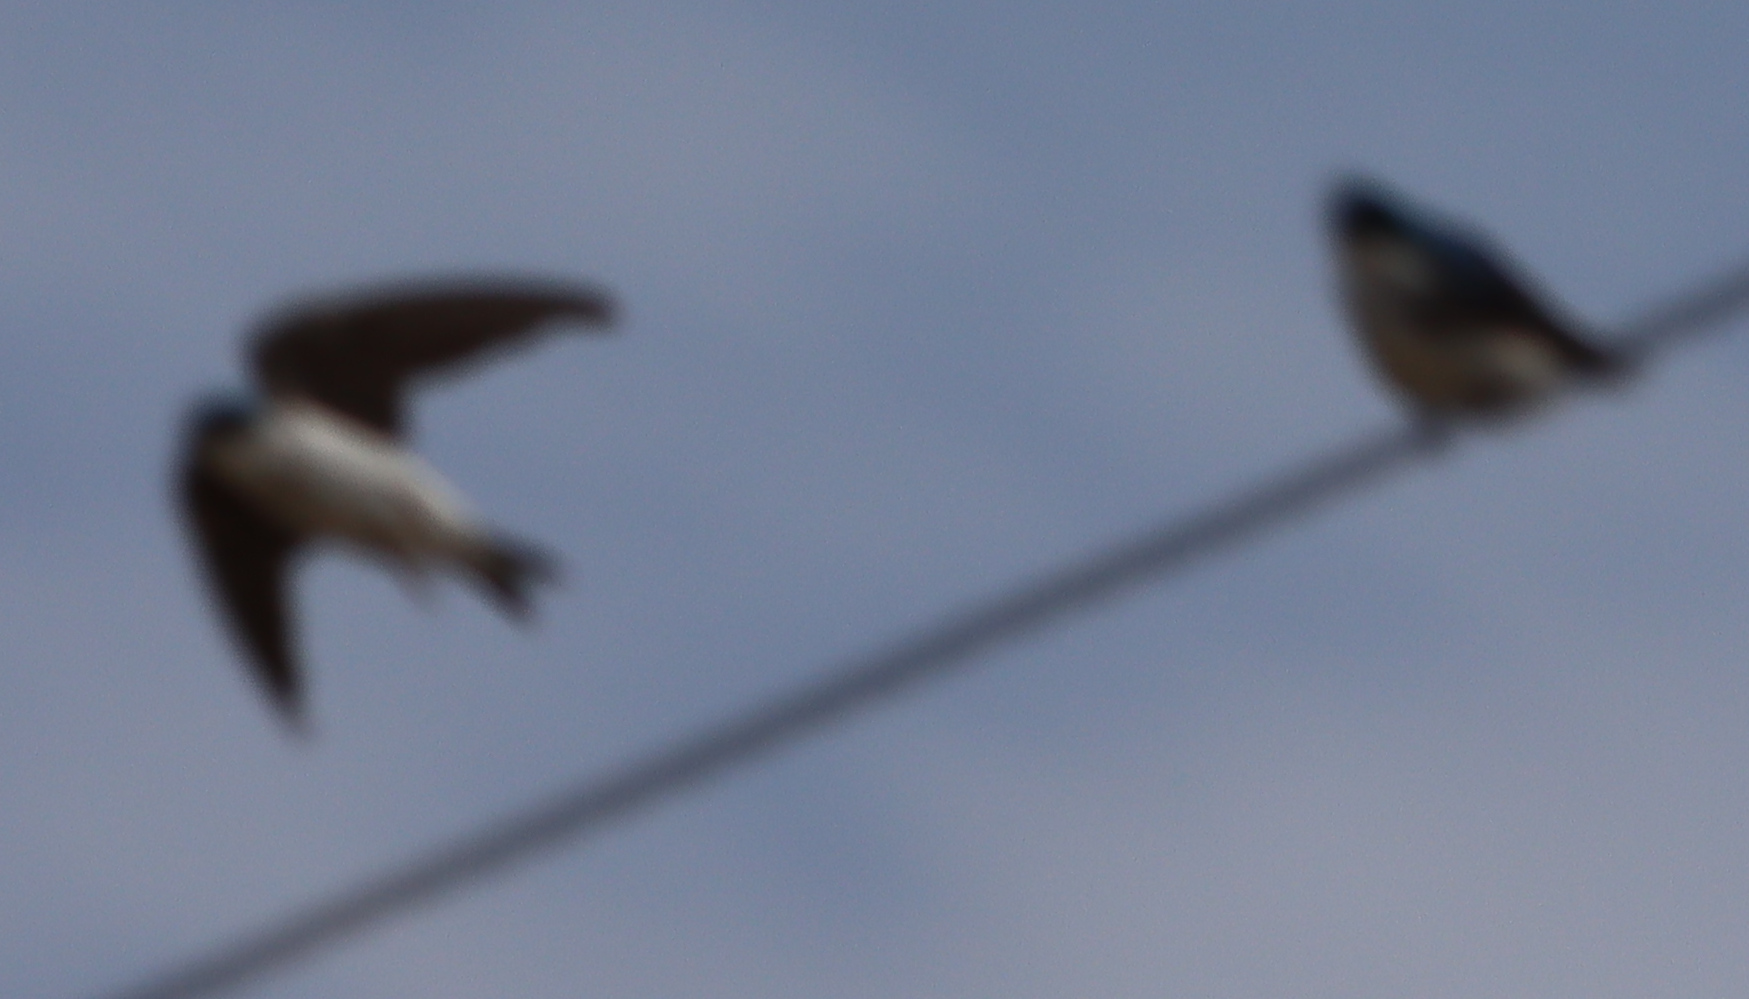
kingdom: Animalia
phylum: Chordata
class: Aves
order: Passeriformes
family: Hirundinidae
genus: Tachycineta
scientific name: Tachycineta bicolor
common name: Tree swallow
